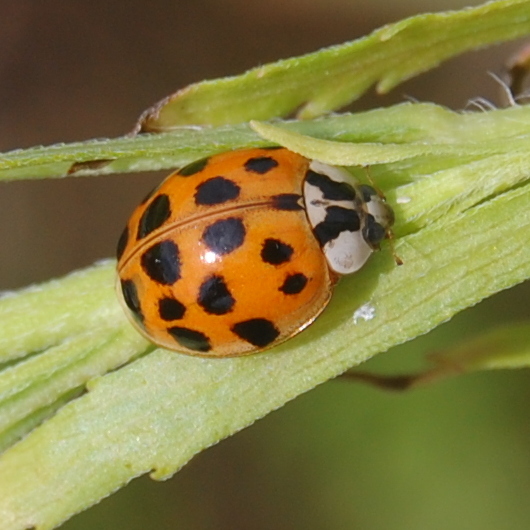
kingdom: Animalia
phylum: Arthropoda
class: Insecta
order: Coleoptera
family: Coccinellidae
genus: Harmonia
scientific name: Harmonia axyridis
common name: Harlequin ladybird
